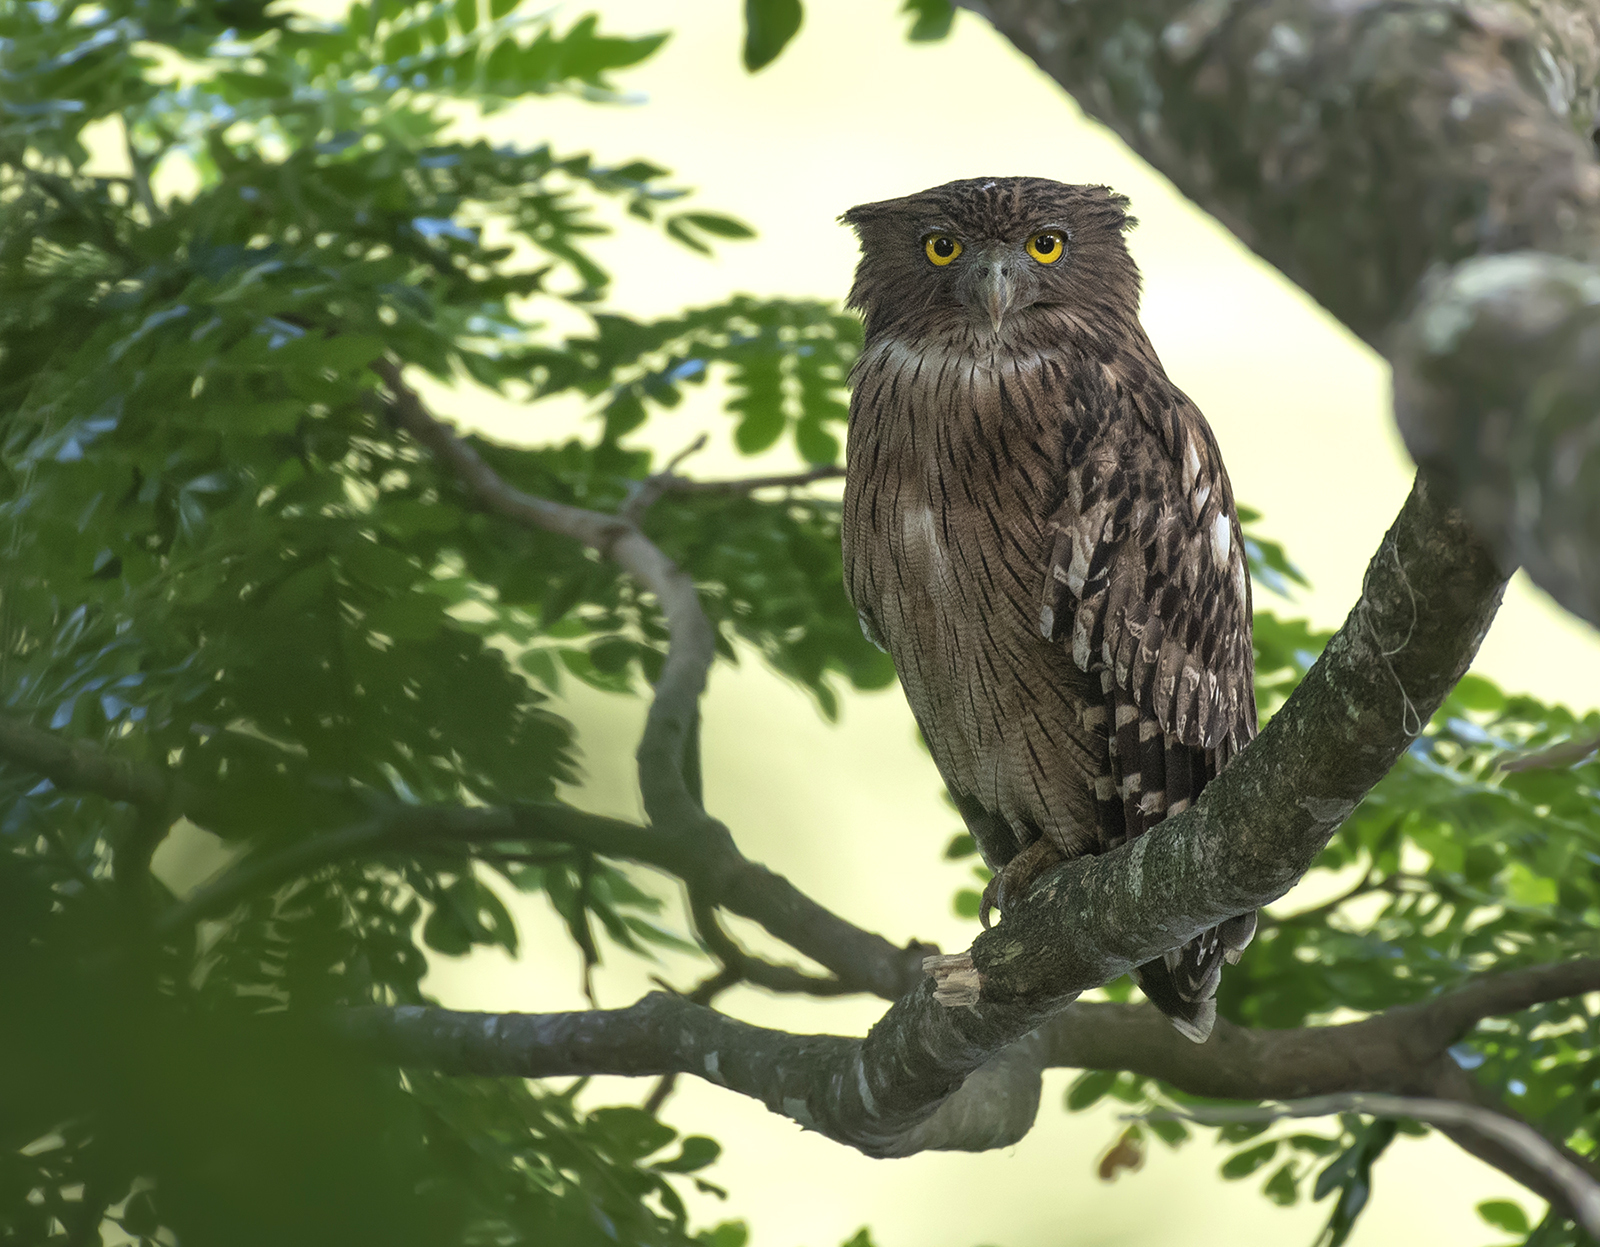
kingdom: Animalia
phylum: Chordata
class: Aves
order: Strigiformes
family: Strigidae
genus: Ketupa
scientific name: Ketupa zeylonensis
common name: Brown fish owl
